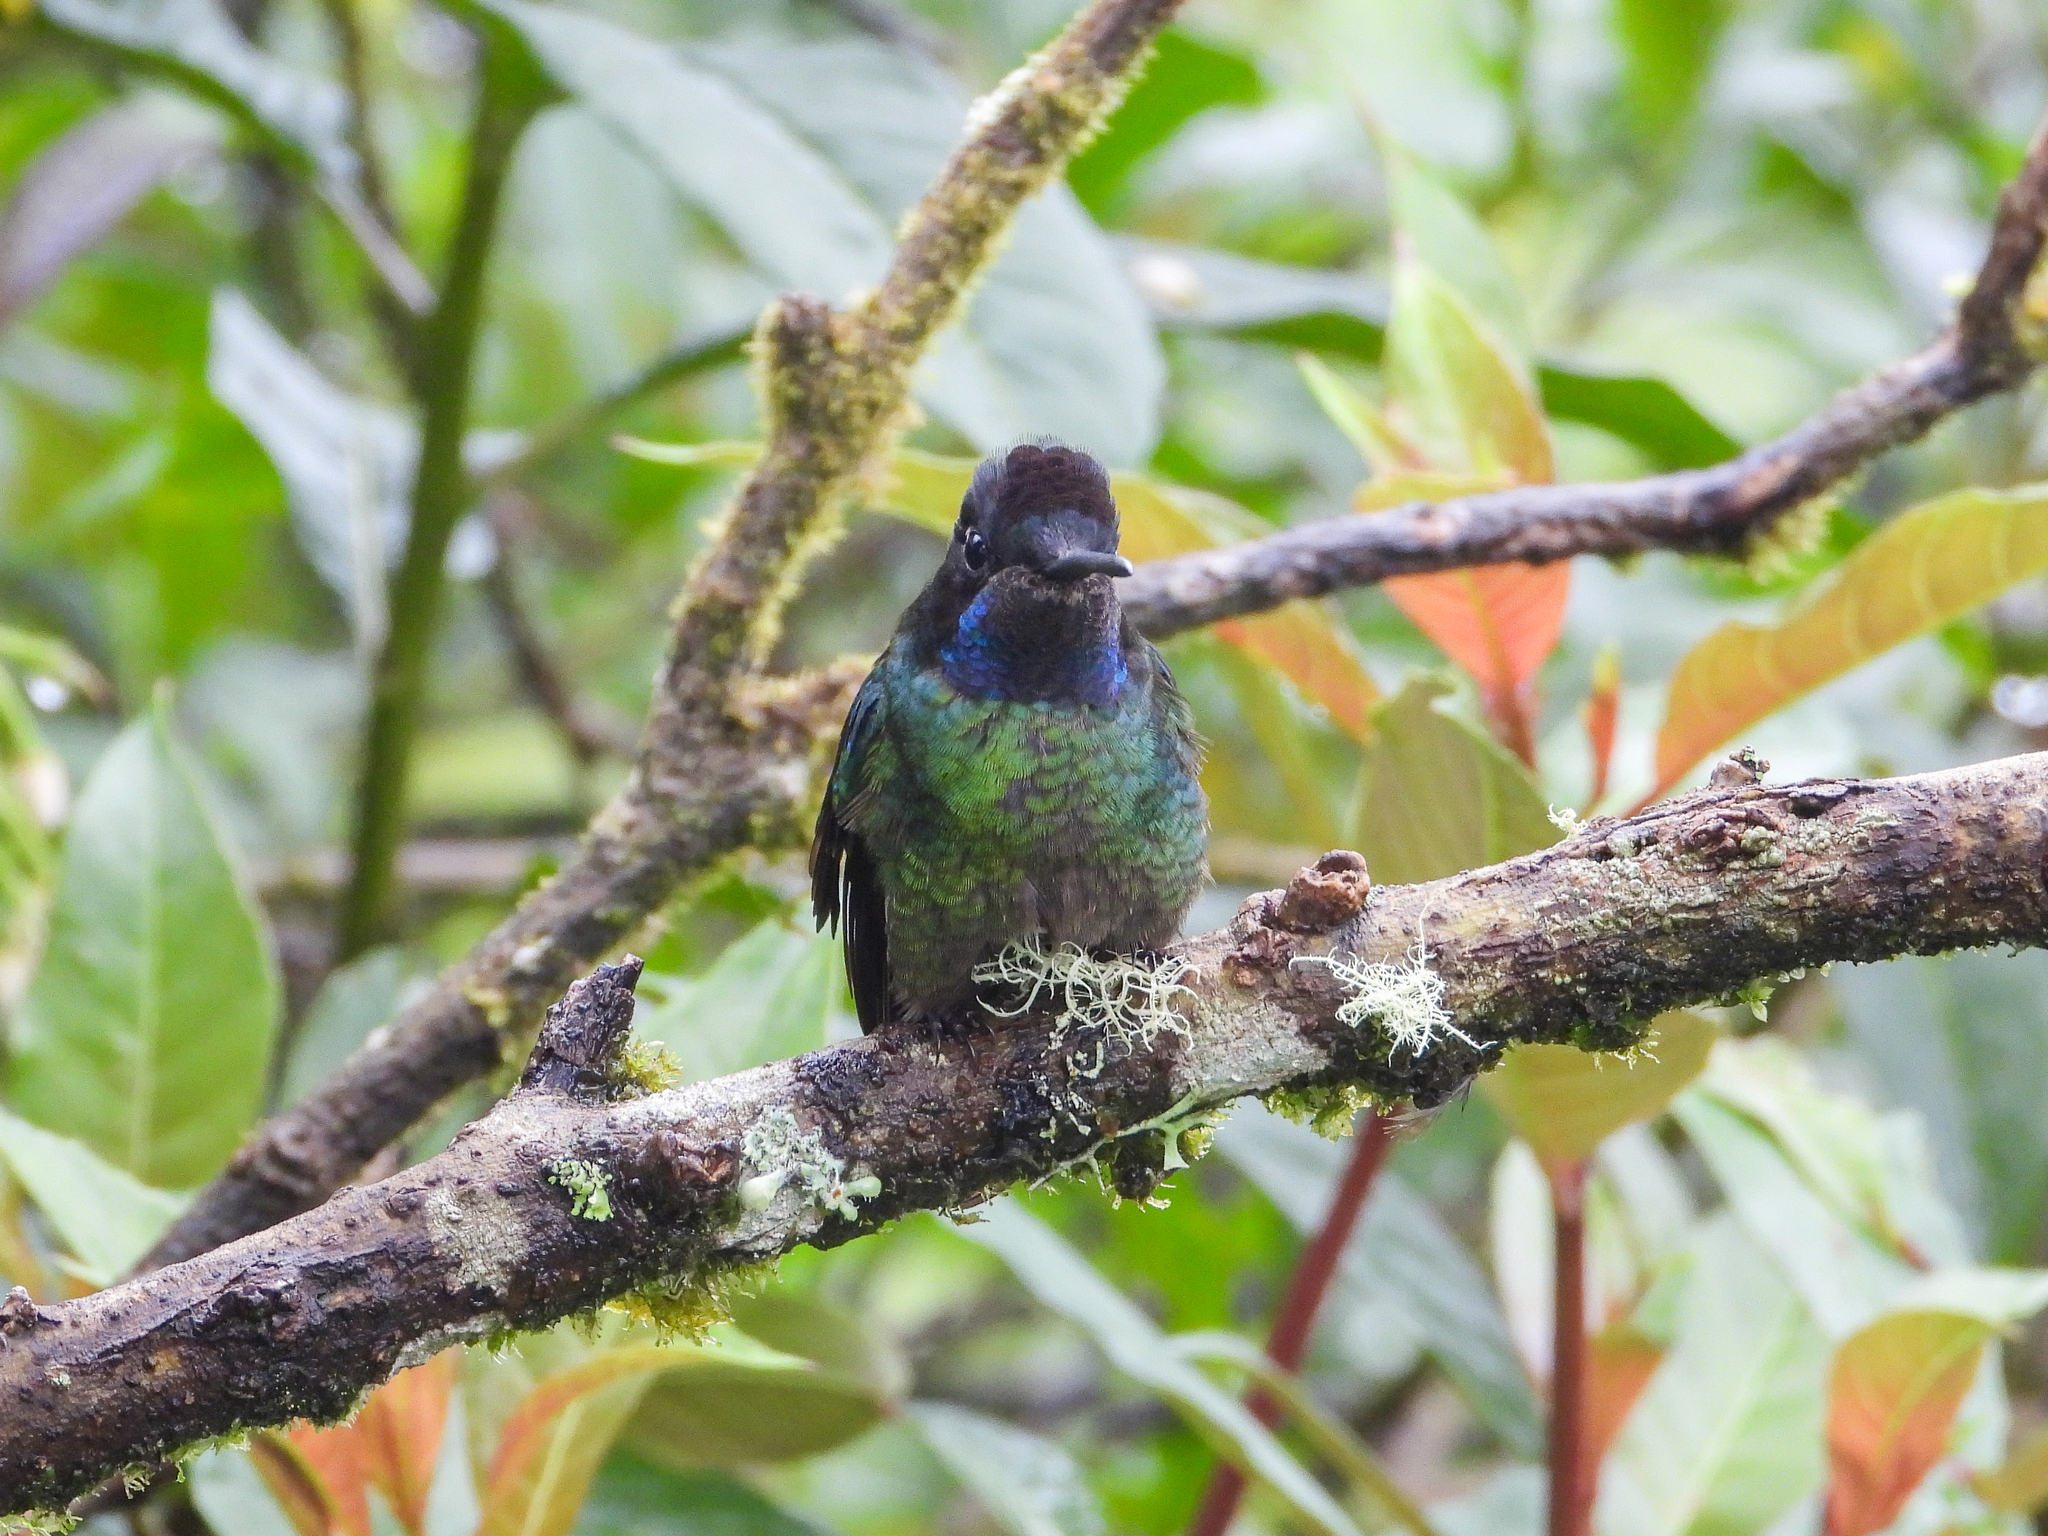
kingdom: Animalia
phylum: Chordata
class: Aves
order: Apodiformes
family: Trochilidae
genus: Eugenes
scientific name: Eugenes spectabilis
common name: Talamanca hummingbird
